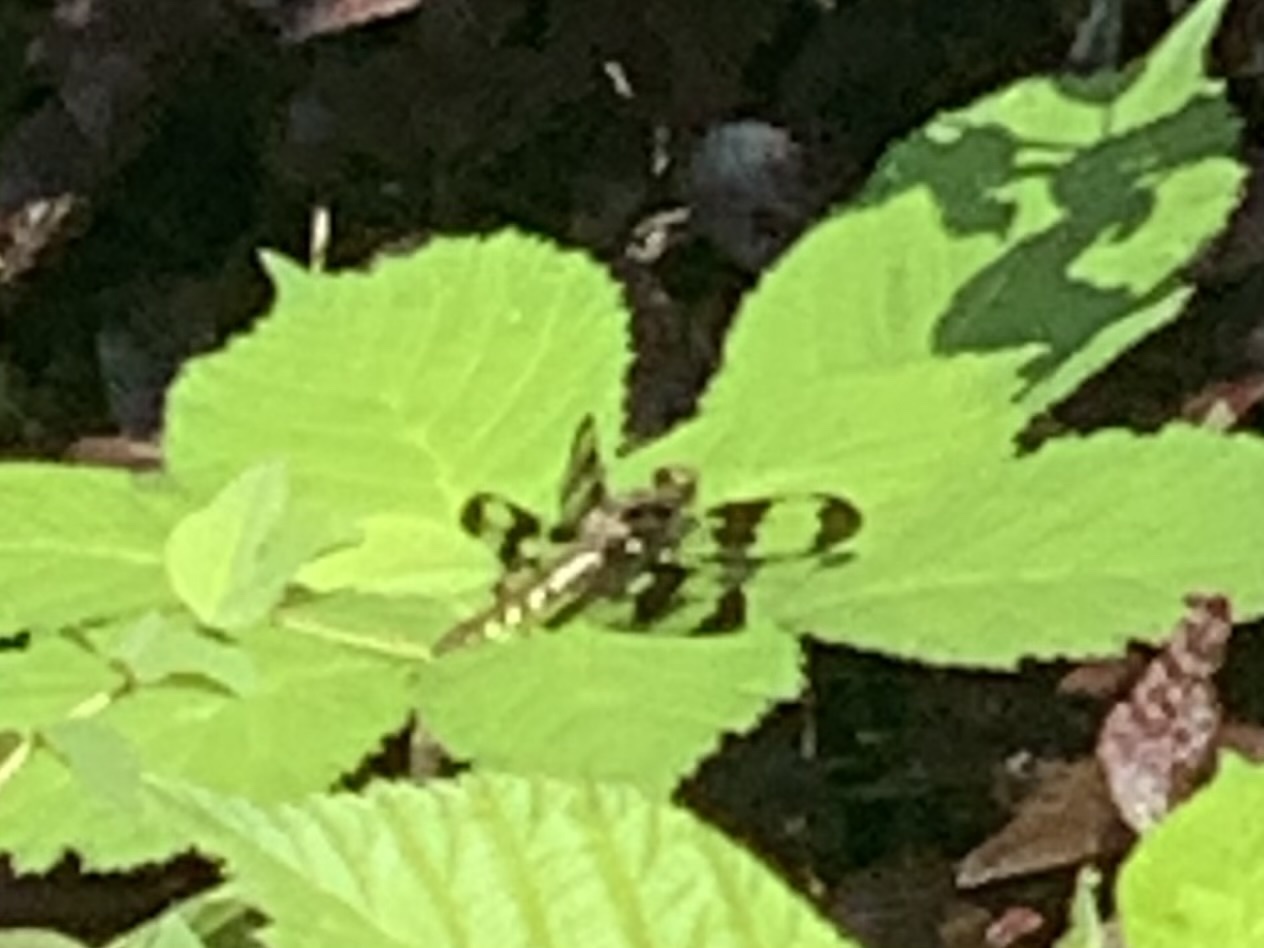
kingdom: Animalia
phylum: Arthropoda
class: Insecta
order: Odonata
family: Libellulidae
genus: Plathemis
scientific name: Plathemis lydia
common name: Common whitetail
